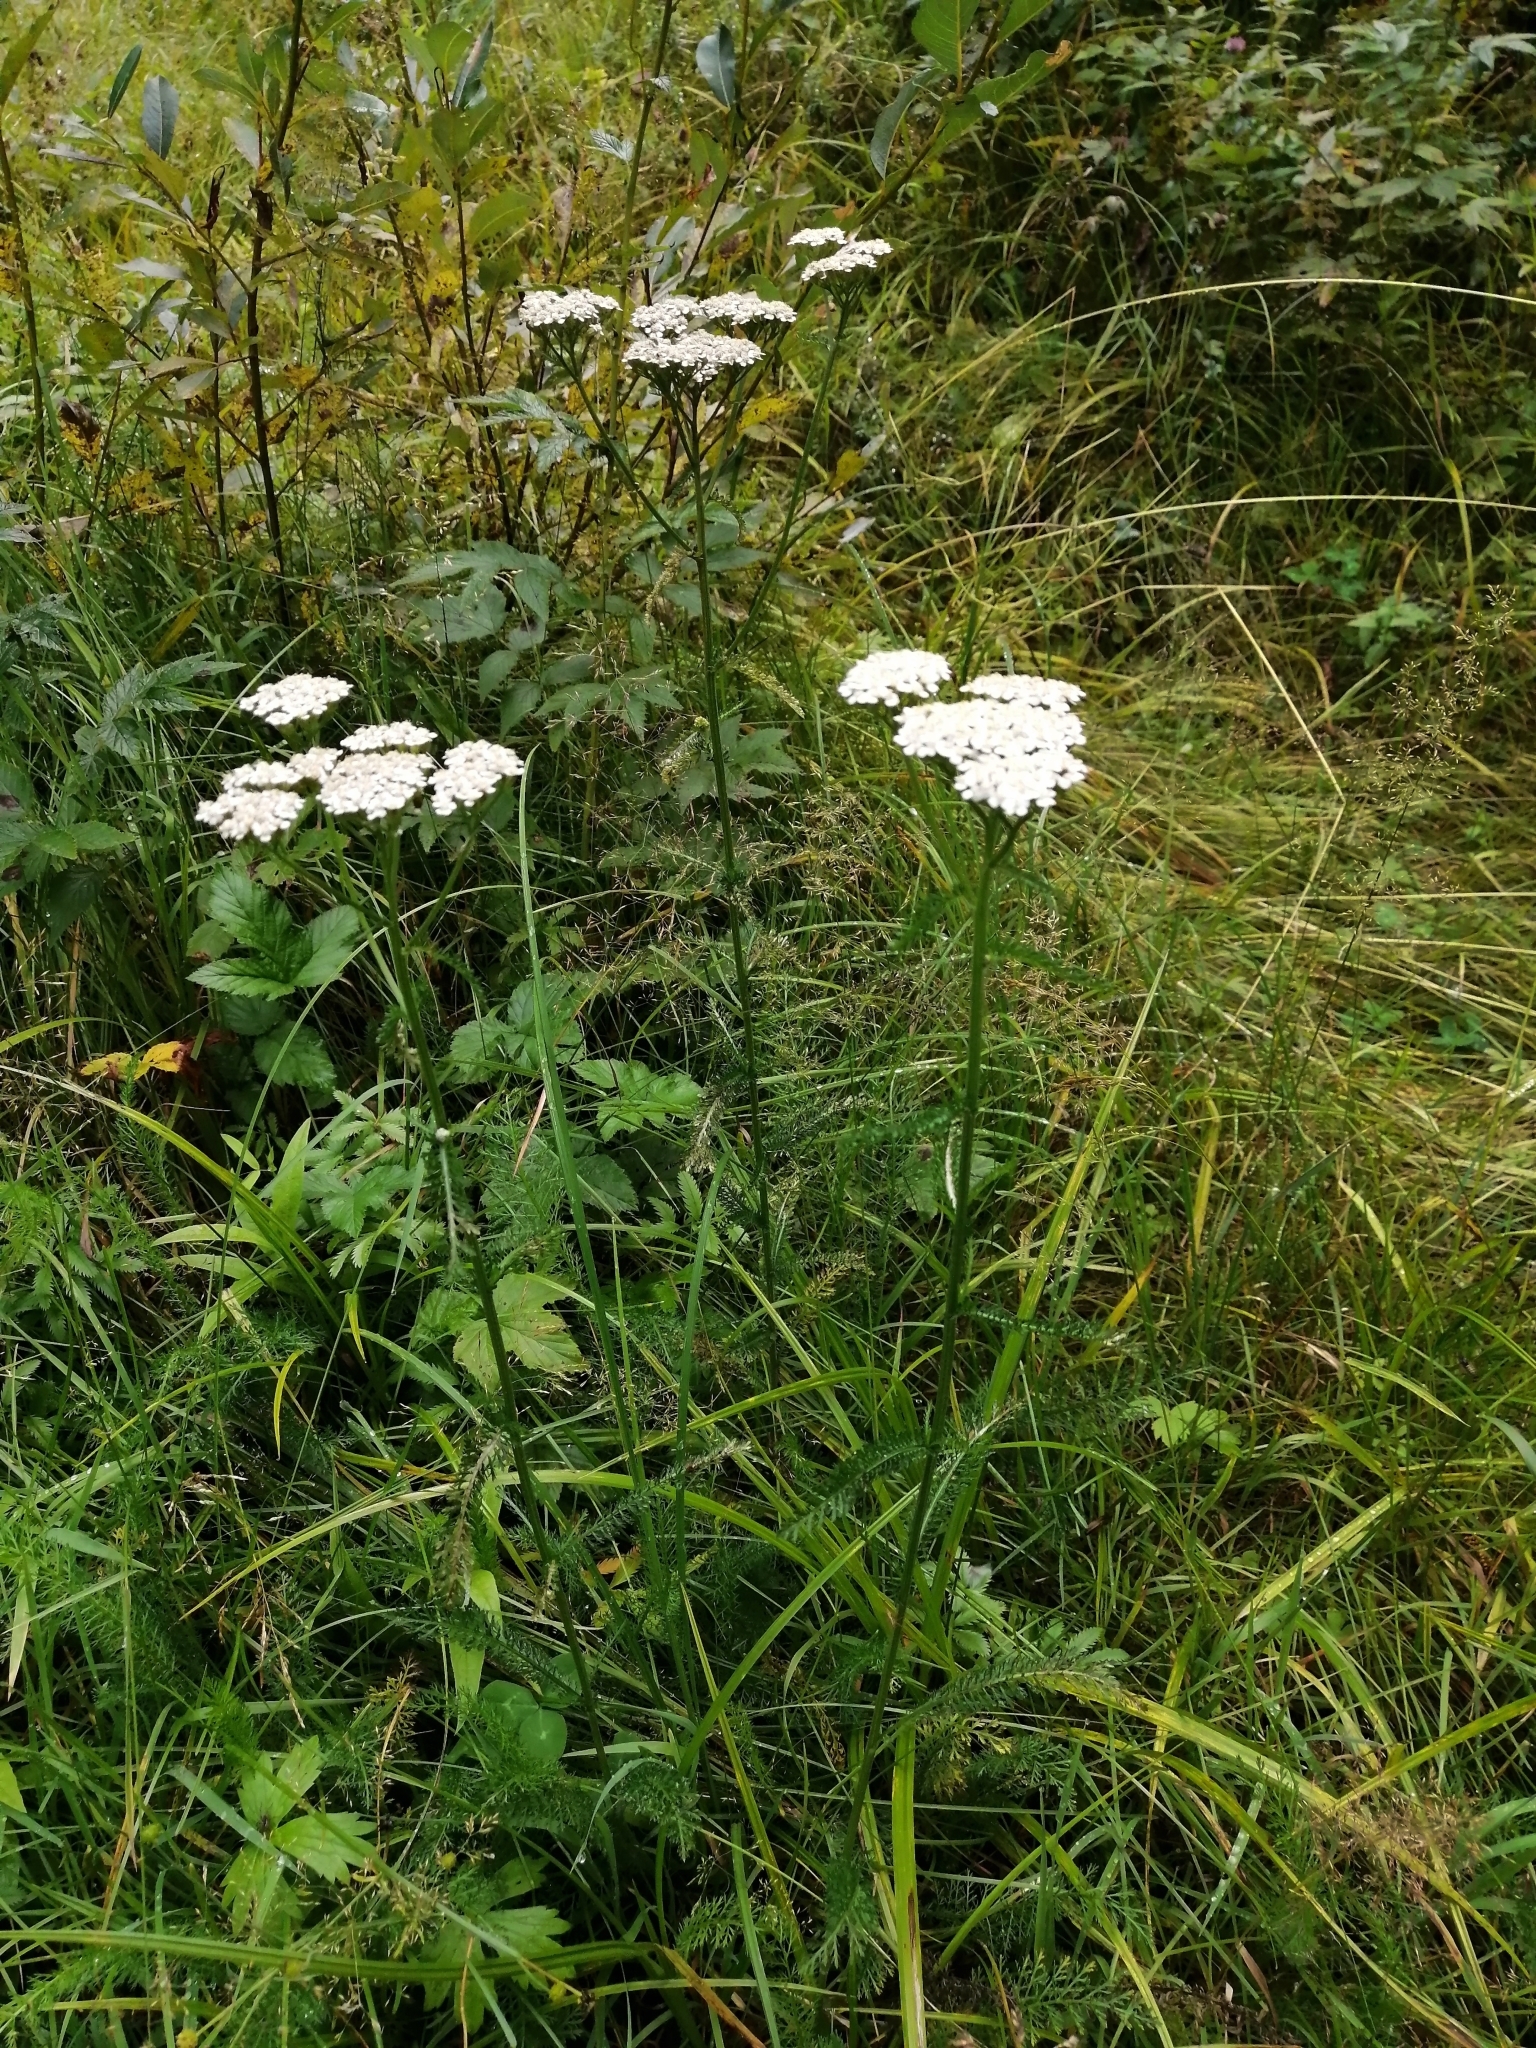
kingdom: Plantae
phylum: Tracheophyta
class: Magnoliopsida
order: Asterales
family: Asteraceae
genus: Achillea
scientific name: Achillea millefolium
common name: Yarrow
